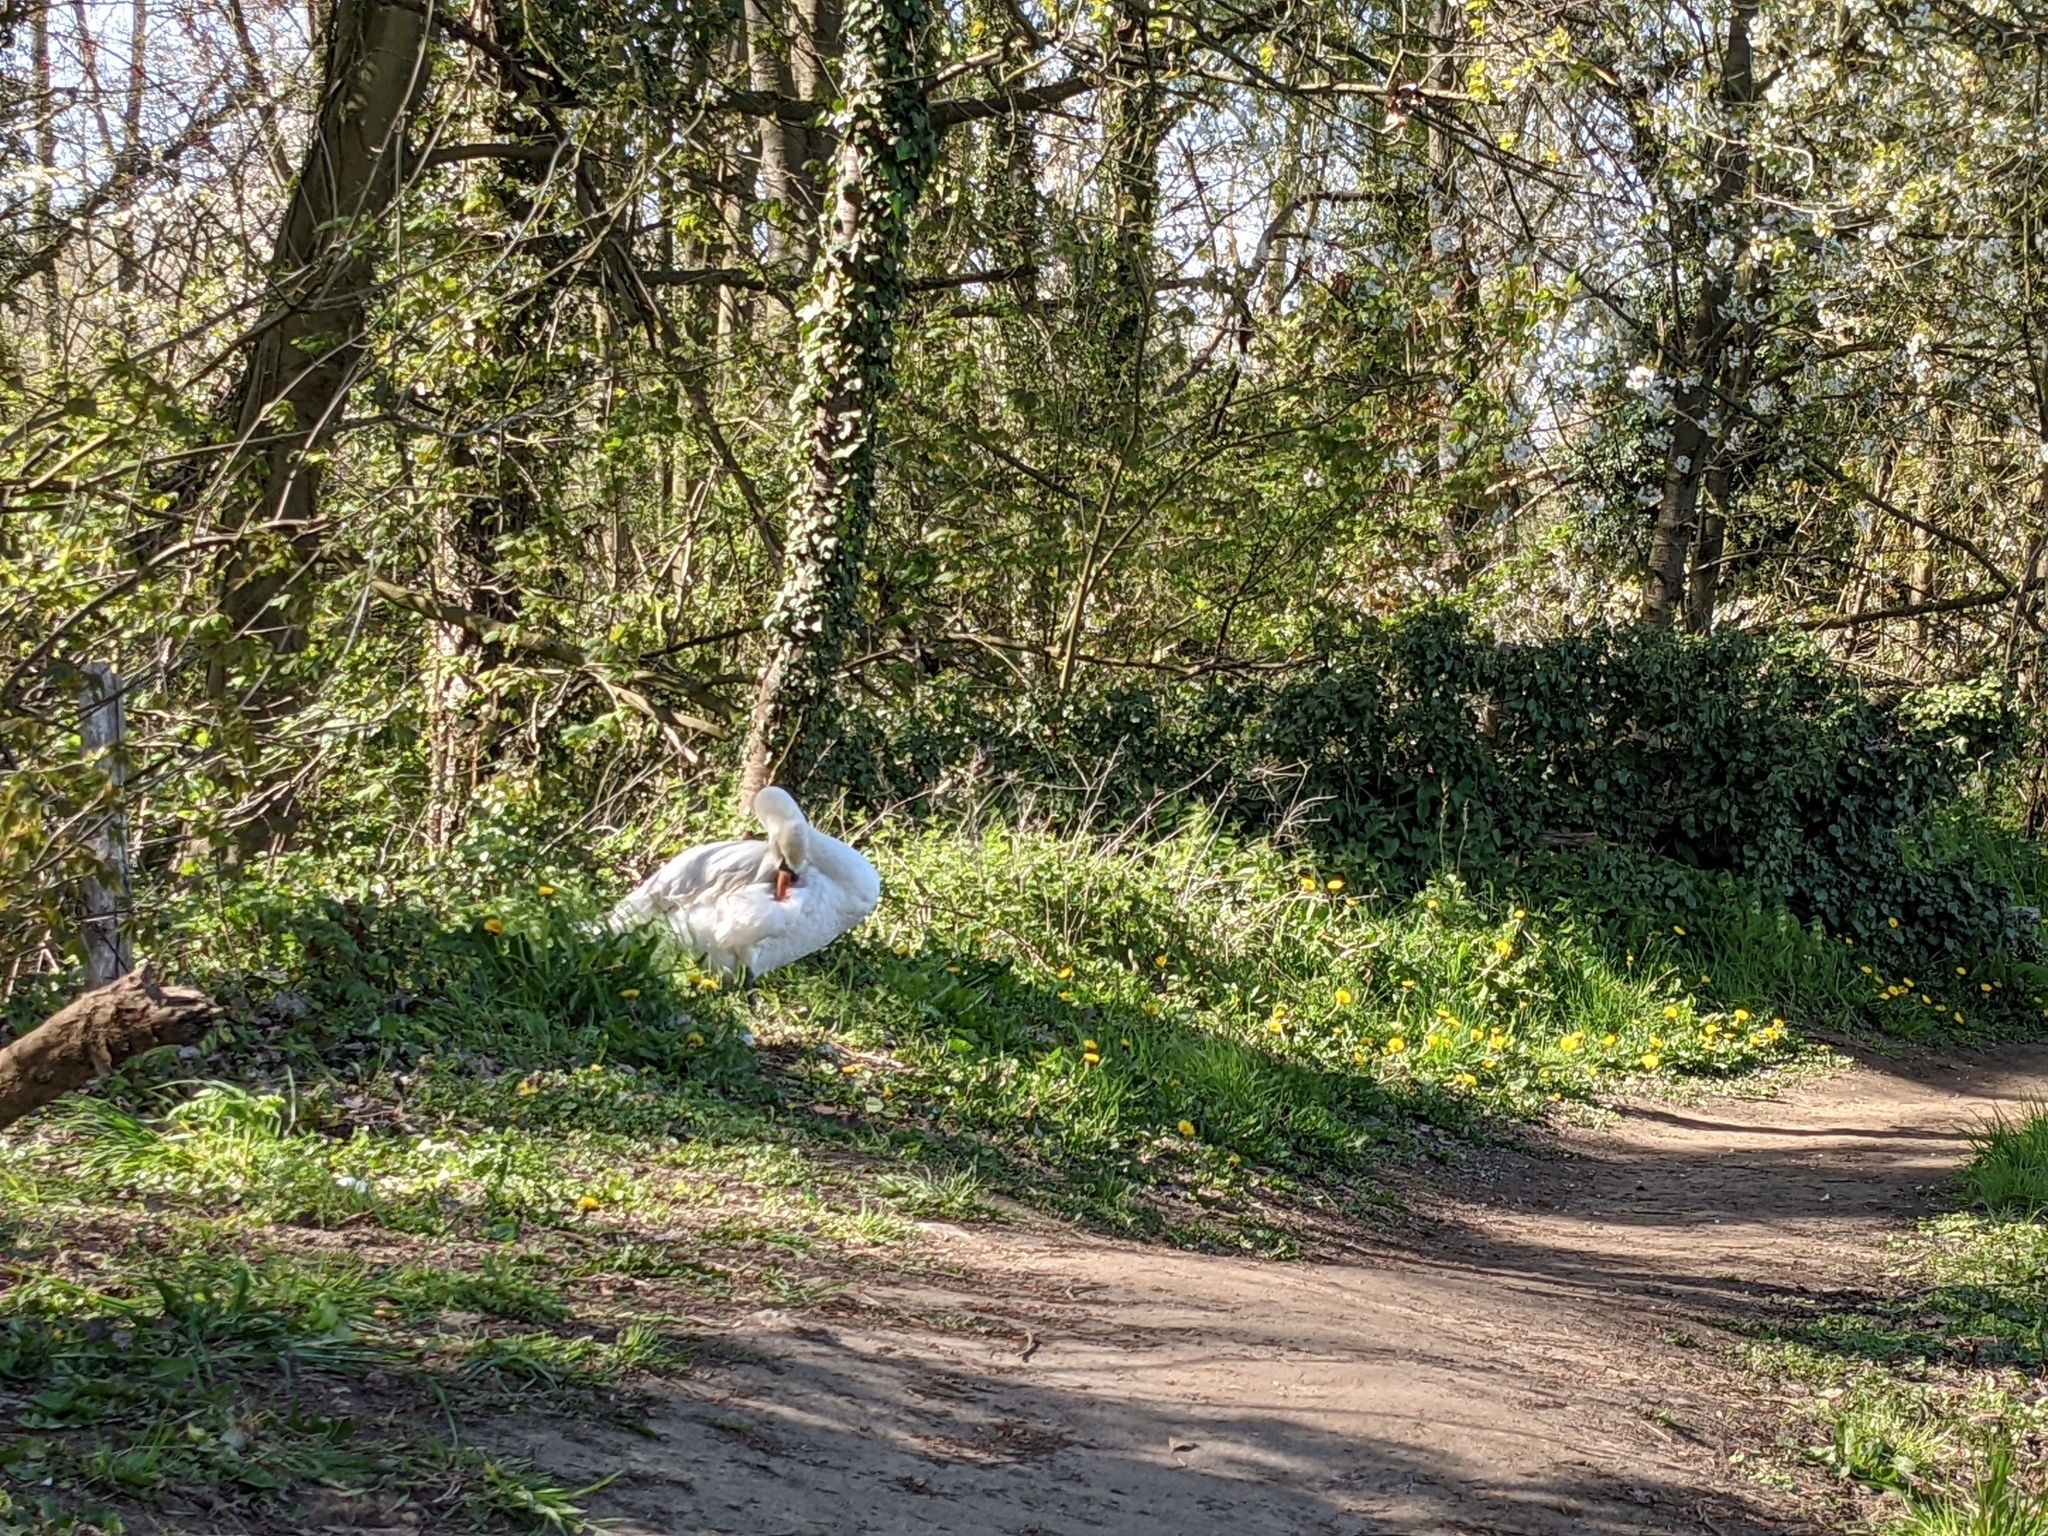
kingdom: Animalia
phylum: Chordata
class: Aves
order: Anseriformes
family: Anatidae
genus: Cygnus
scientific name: Cygnus olor
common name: Mute swan
